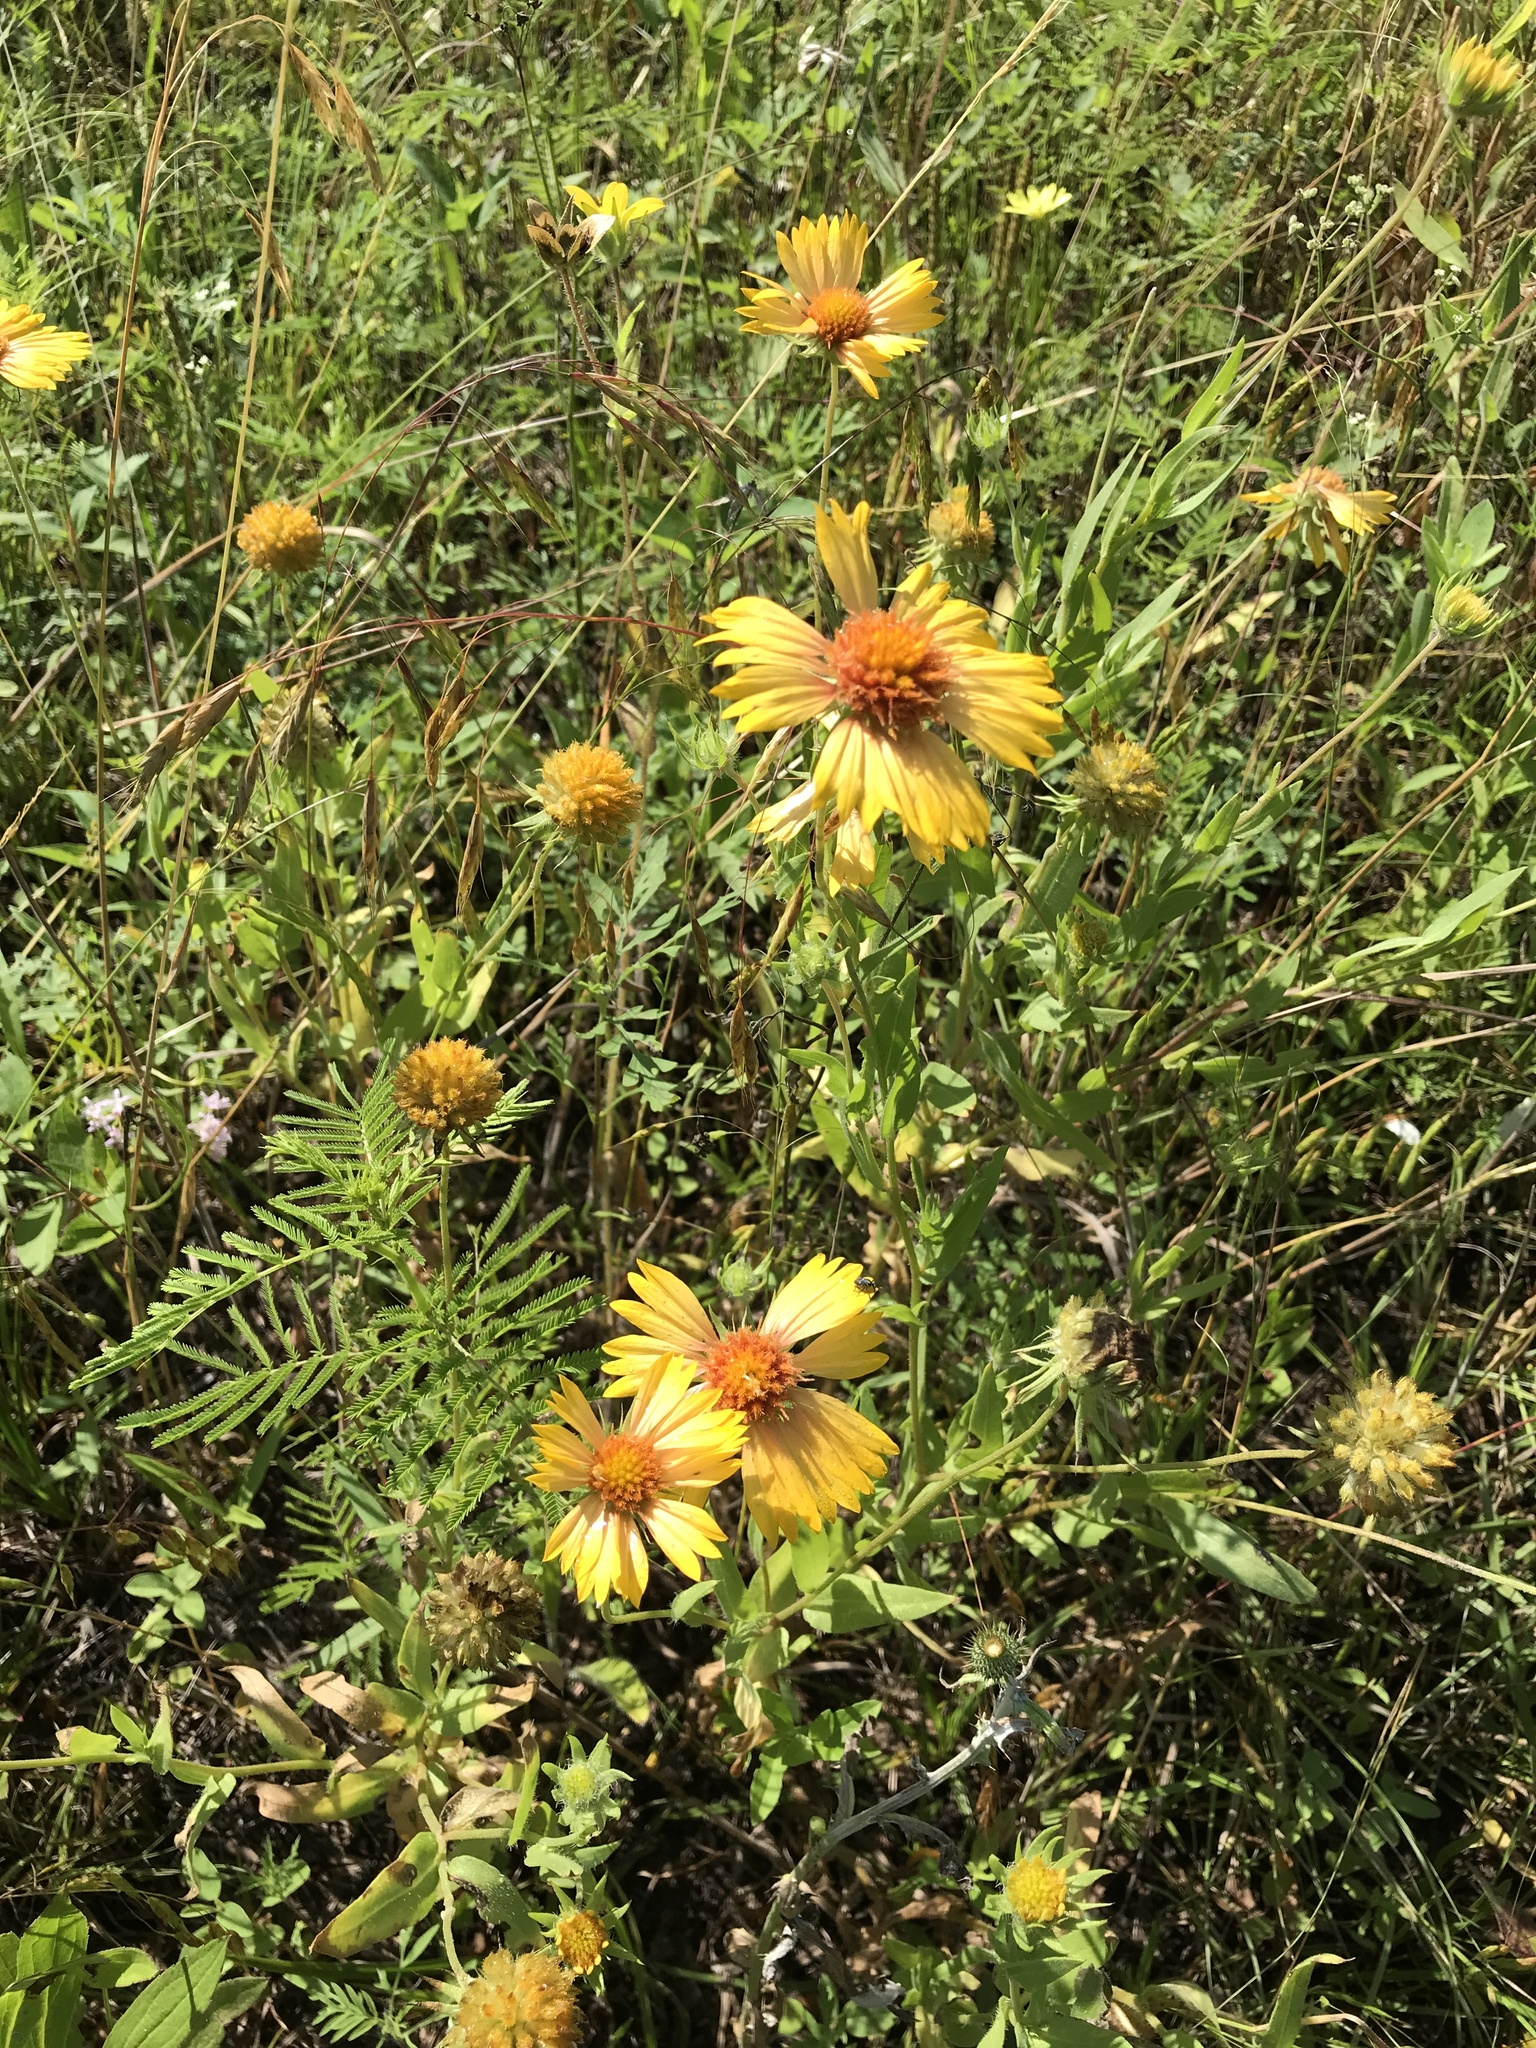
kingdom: Plantae
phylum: Tracheophyta
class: Magnoliopsida
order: Asterales
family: Asteraceae
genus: Gaillardia
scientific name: Gaillardia pulchella
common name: Firewheel
